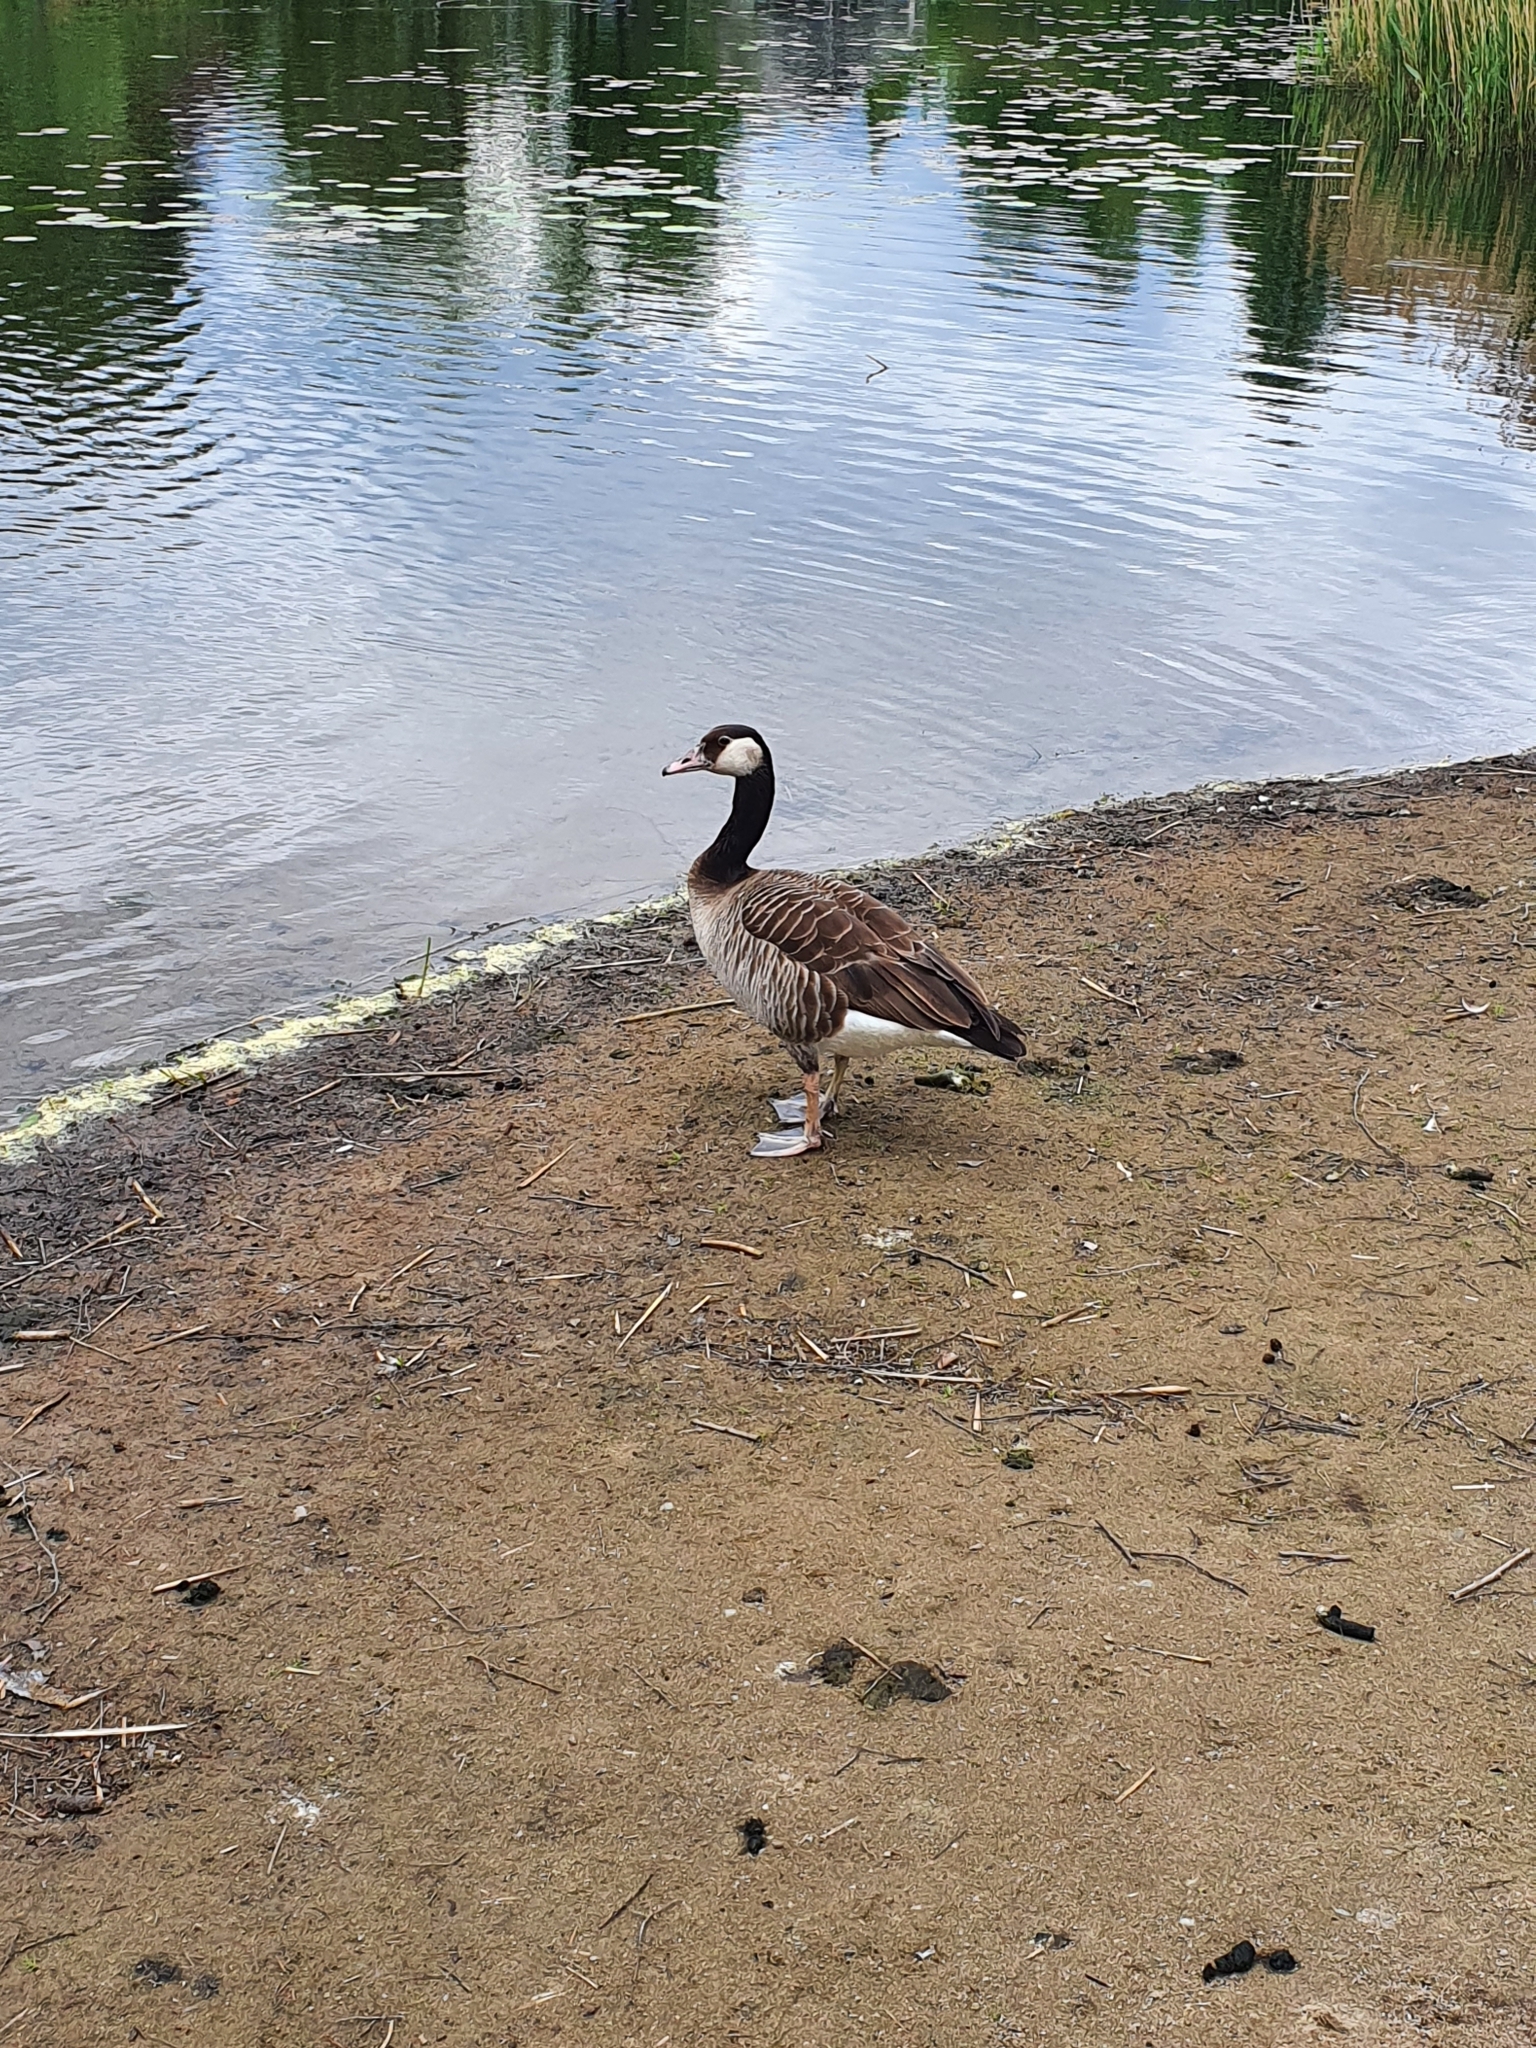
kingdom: Animalia
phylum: Chordata
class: Aves
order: Anseriformes
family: Anatidae
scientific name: Anatidae
